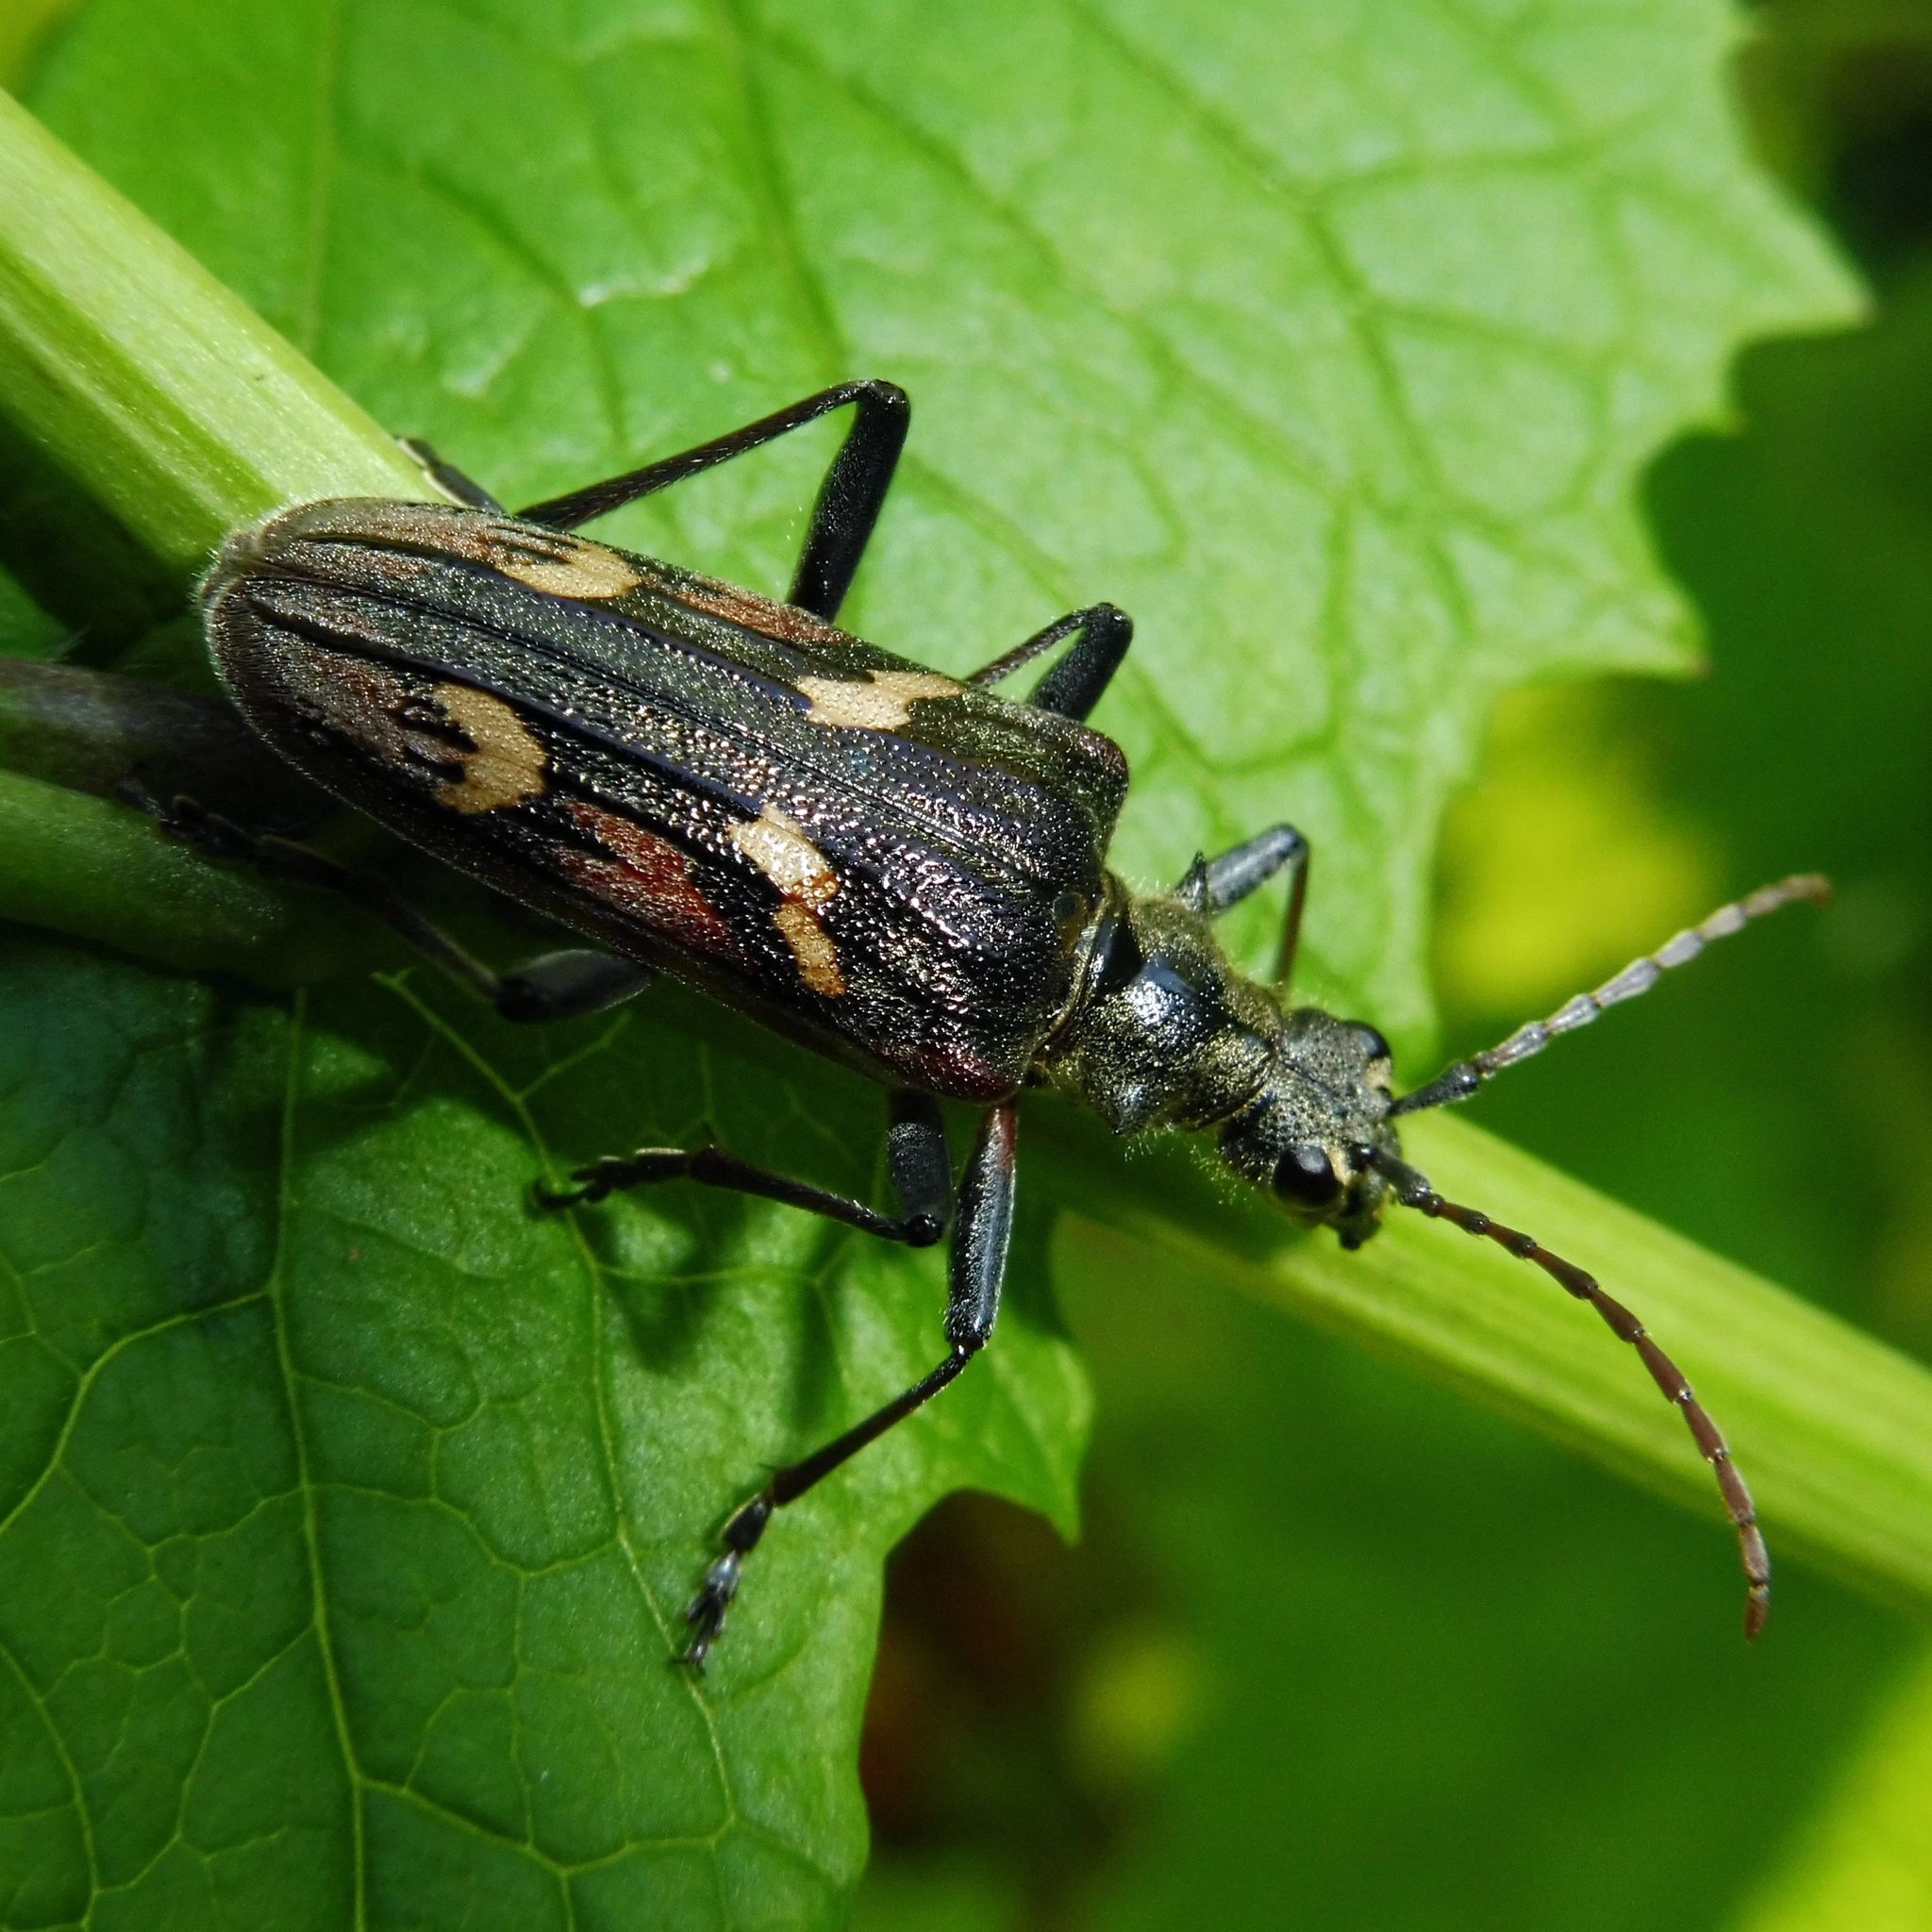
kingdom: Animalia
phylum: Arthropoda
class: Insecta
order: Coleoptera
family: Cerambycidae
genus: Rhagium
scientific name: Rhagium bifasciatum
